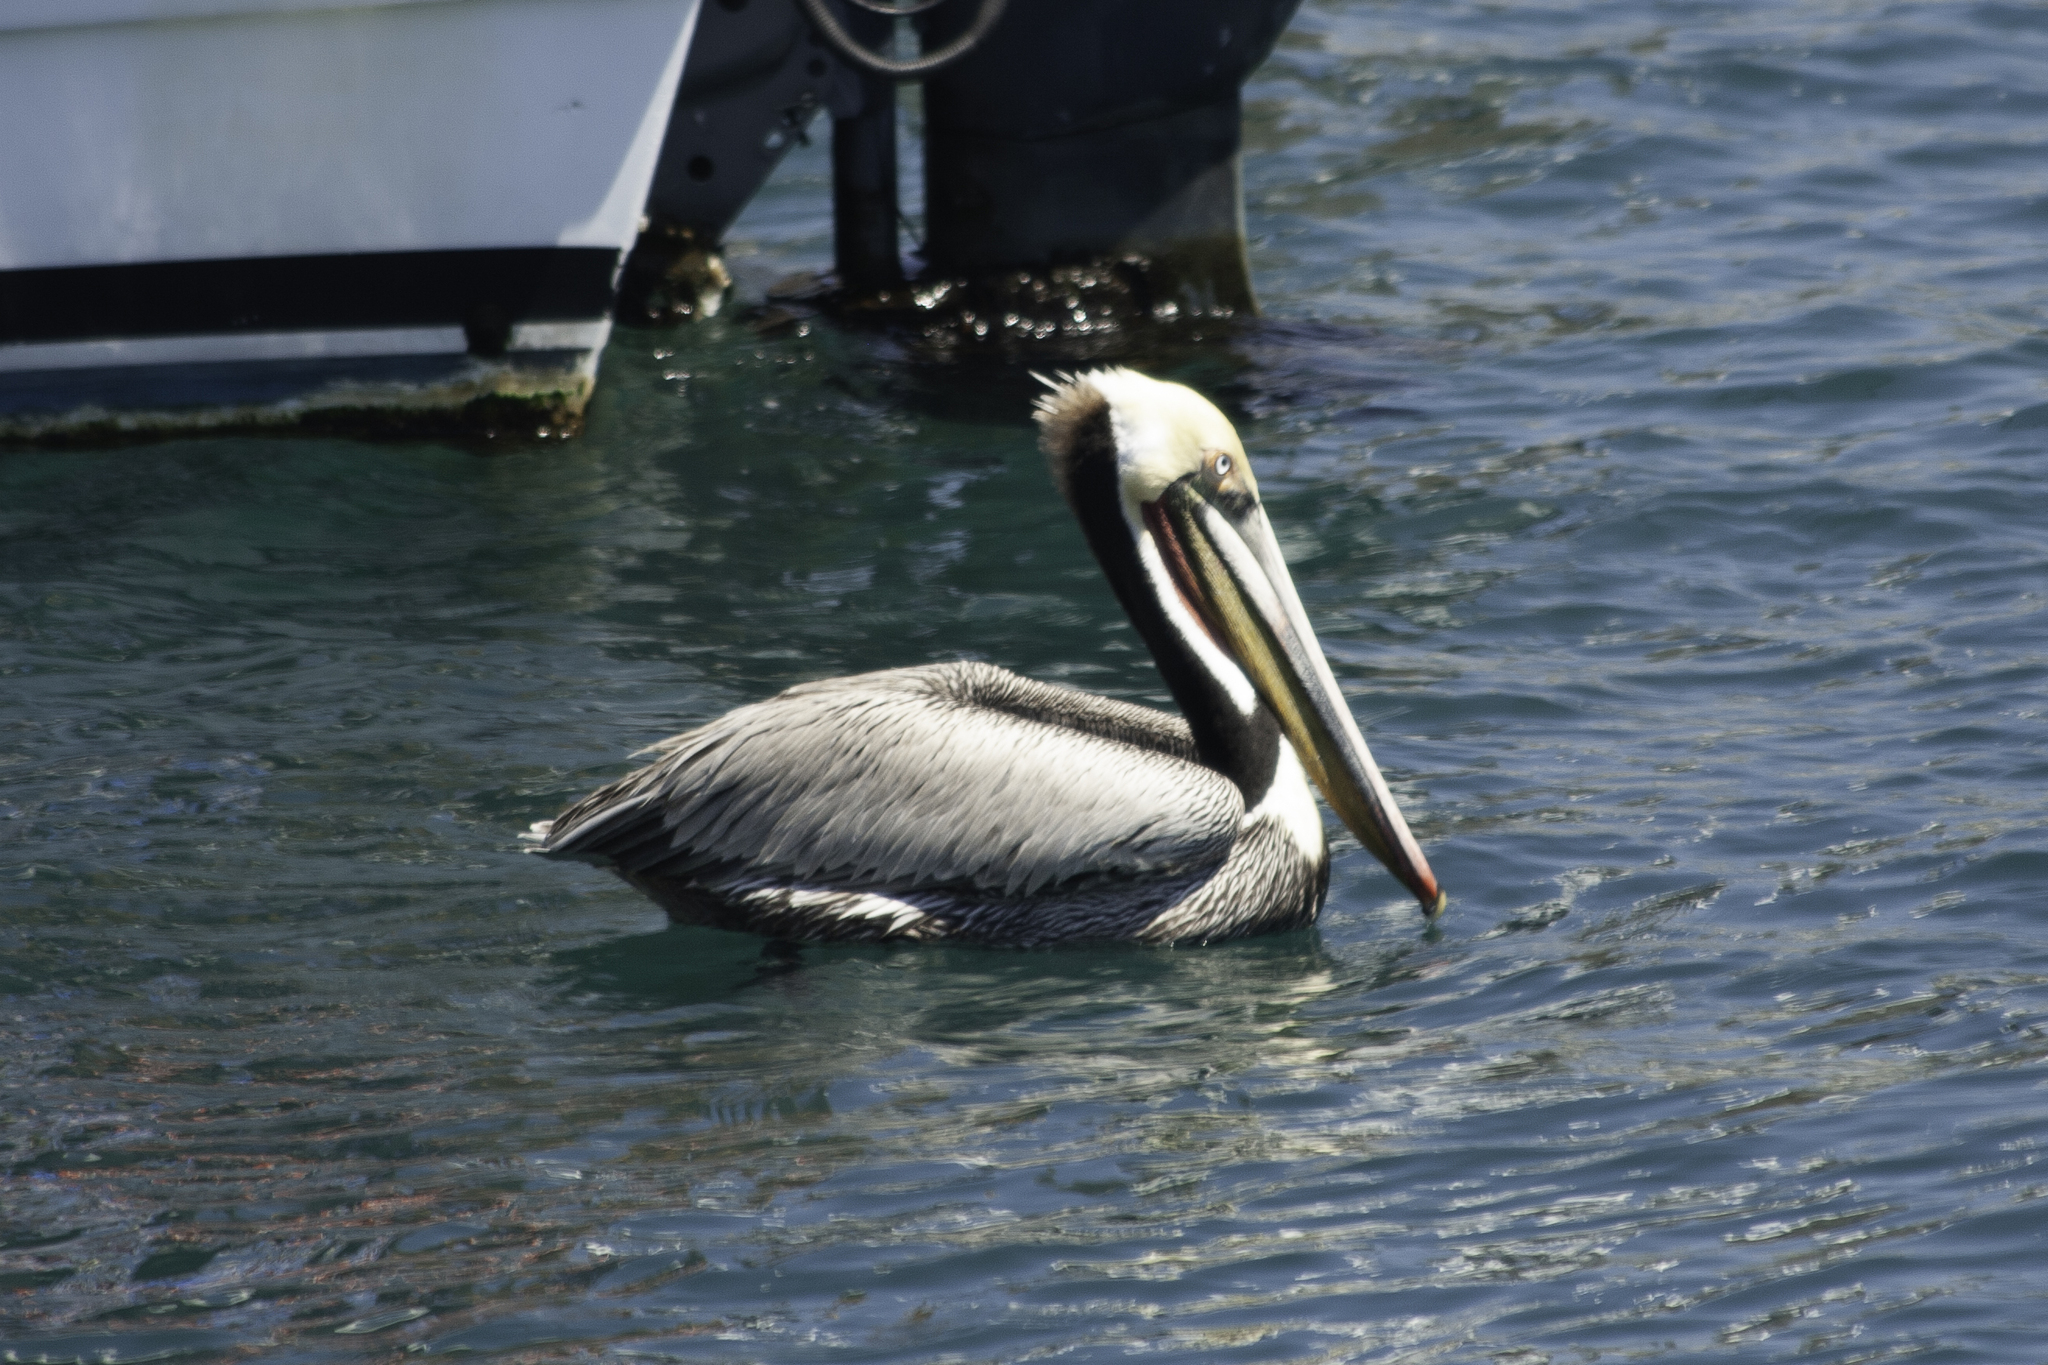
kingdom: Animalia
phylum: Chordata
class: Aves
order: Pelecaniformes
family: Pelecanidae
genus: Pelecanus
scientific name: Pelecanus occidentalis
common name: Brown pelican
